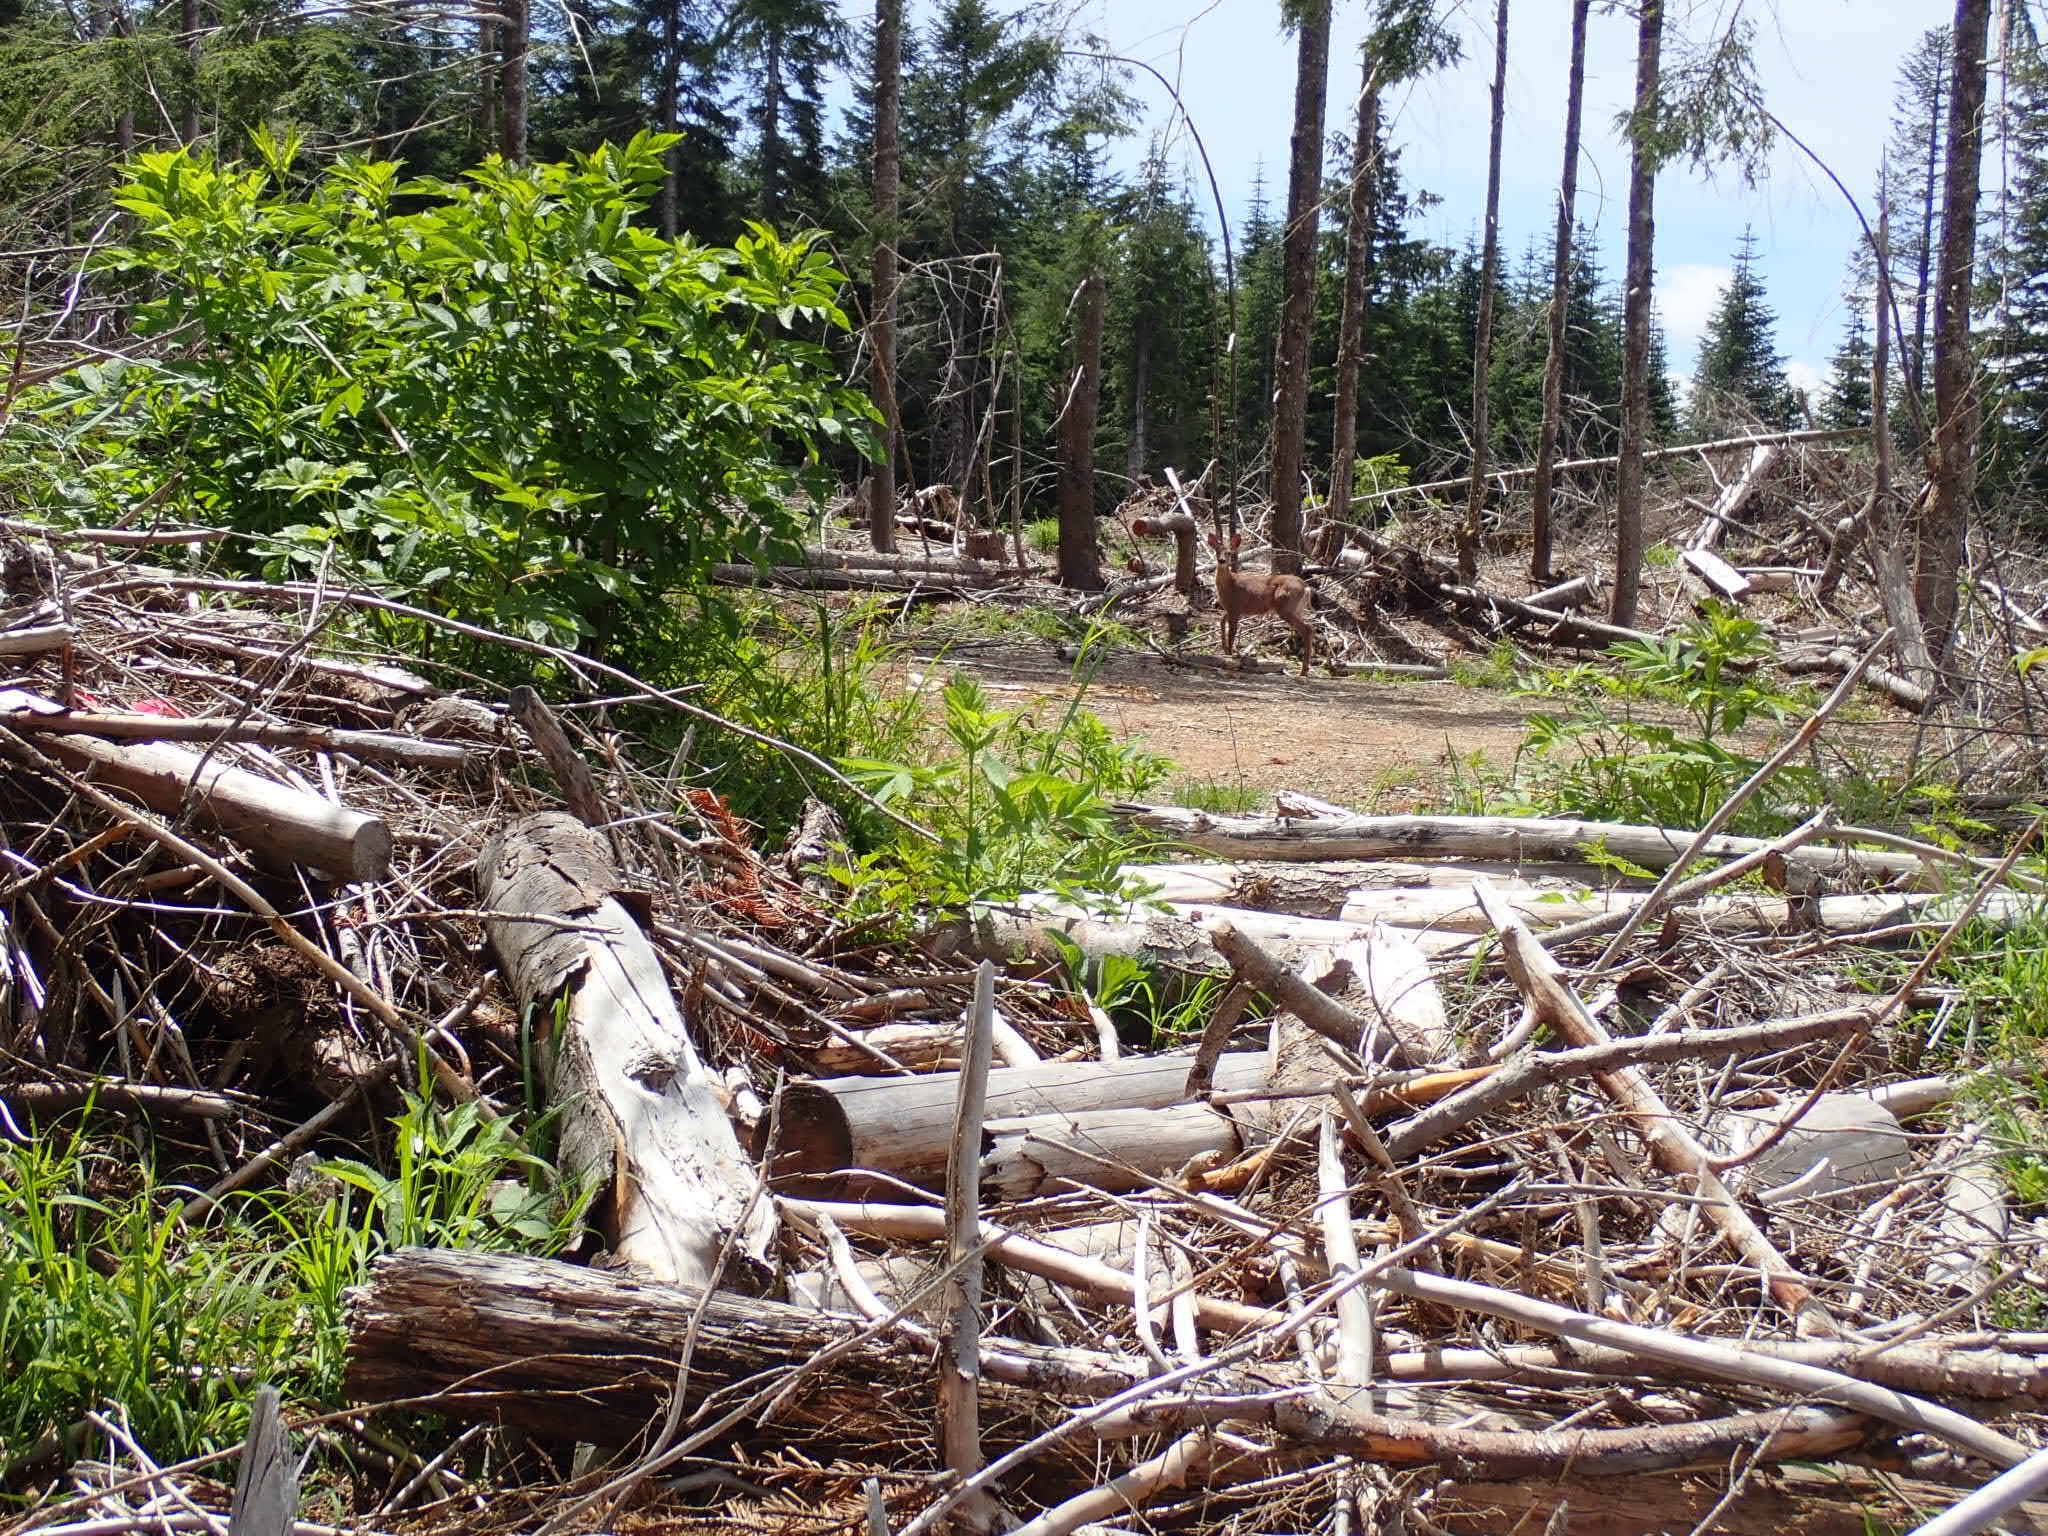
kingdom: Animalia
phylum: Chordata
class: Mammalia
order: Artiodactyla
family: Cervidae
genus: Odocoileus
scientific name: Odocoileus hemionus
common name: Mule deer
